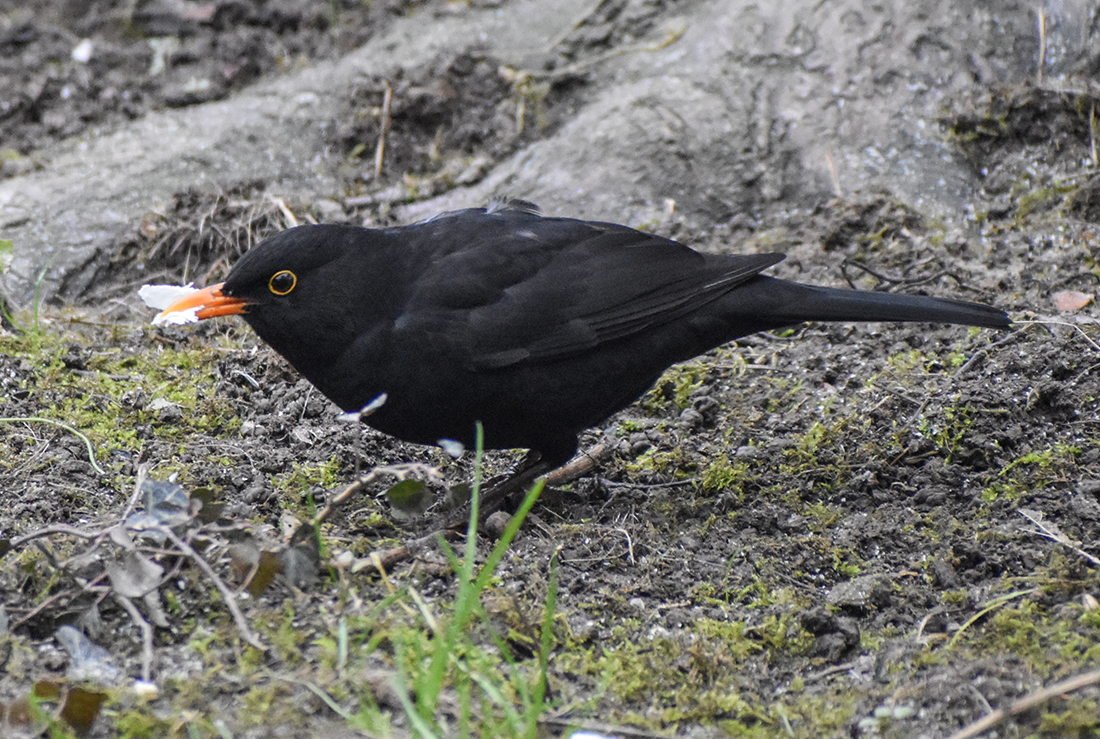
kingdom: Animalia
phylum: Chordata
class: Aves
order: Passeriformes
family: Turdidae
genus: Turdus
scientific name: Turdus merula
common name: Common blackbird
